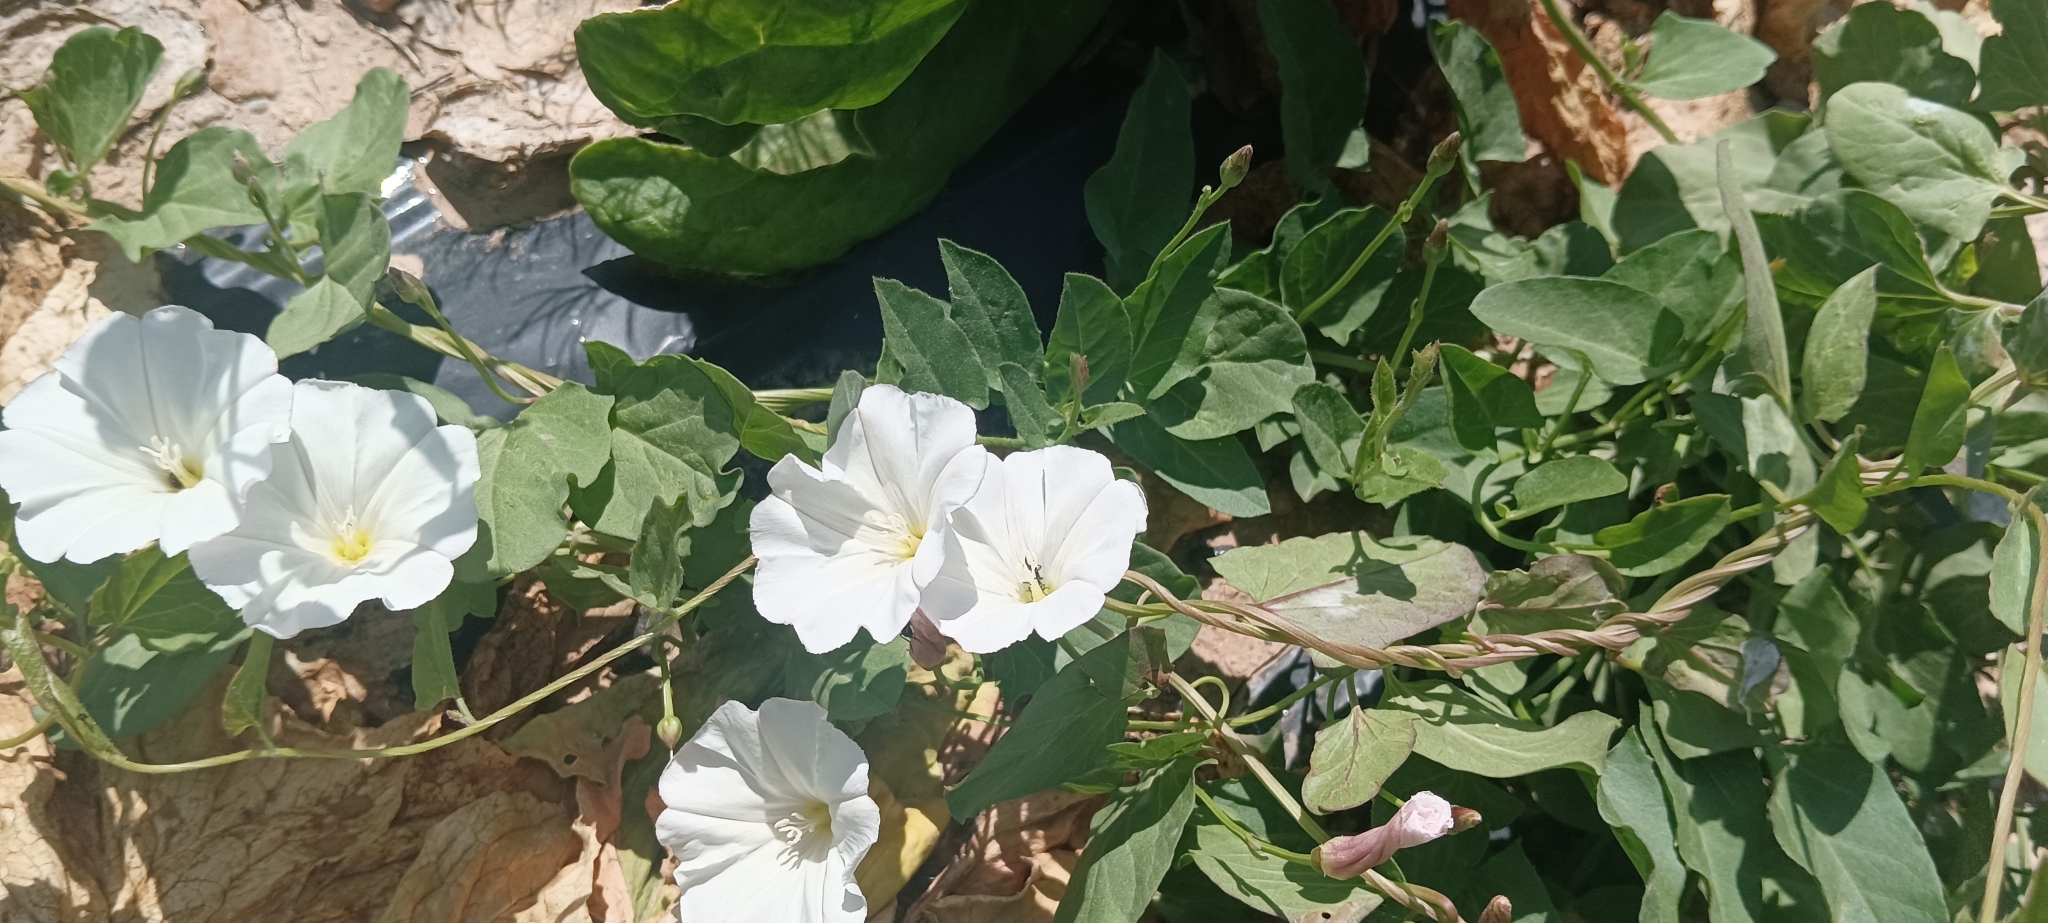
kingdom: Plantae
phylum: Tracheophyta
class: Magnoliopsida
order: Solanales
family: Convolvulaceae
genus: Convolvulus
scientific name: Convolvulus arvensis
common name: Field bindweed
